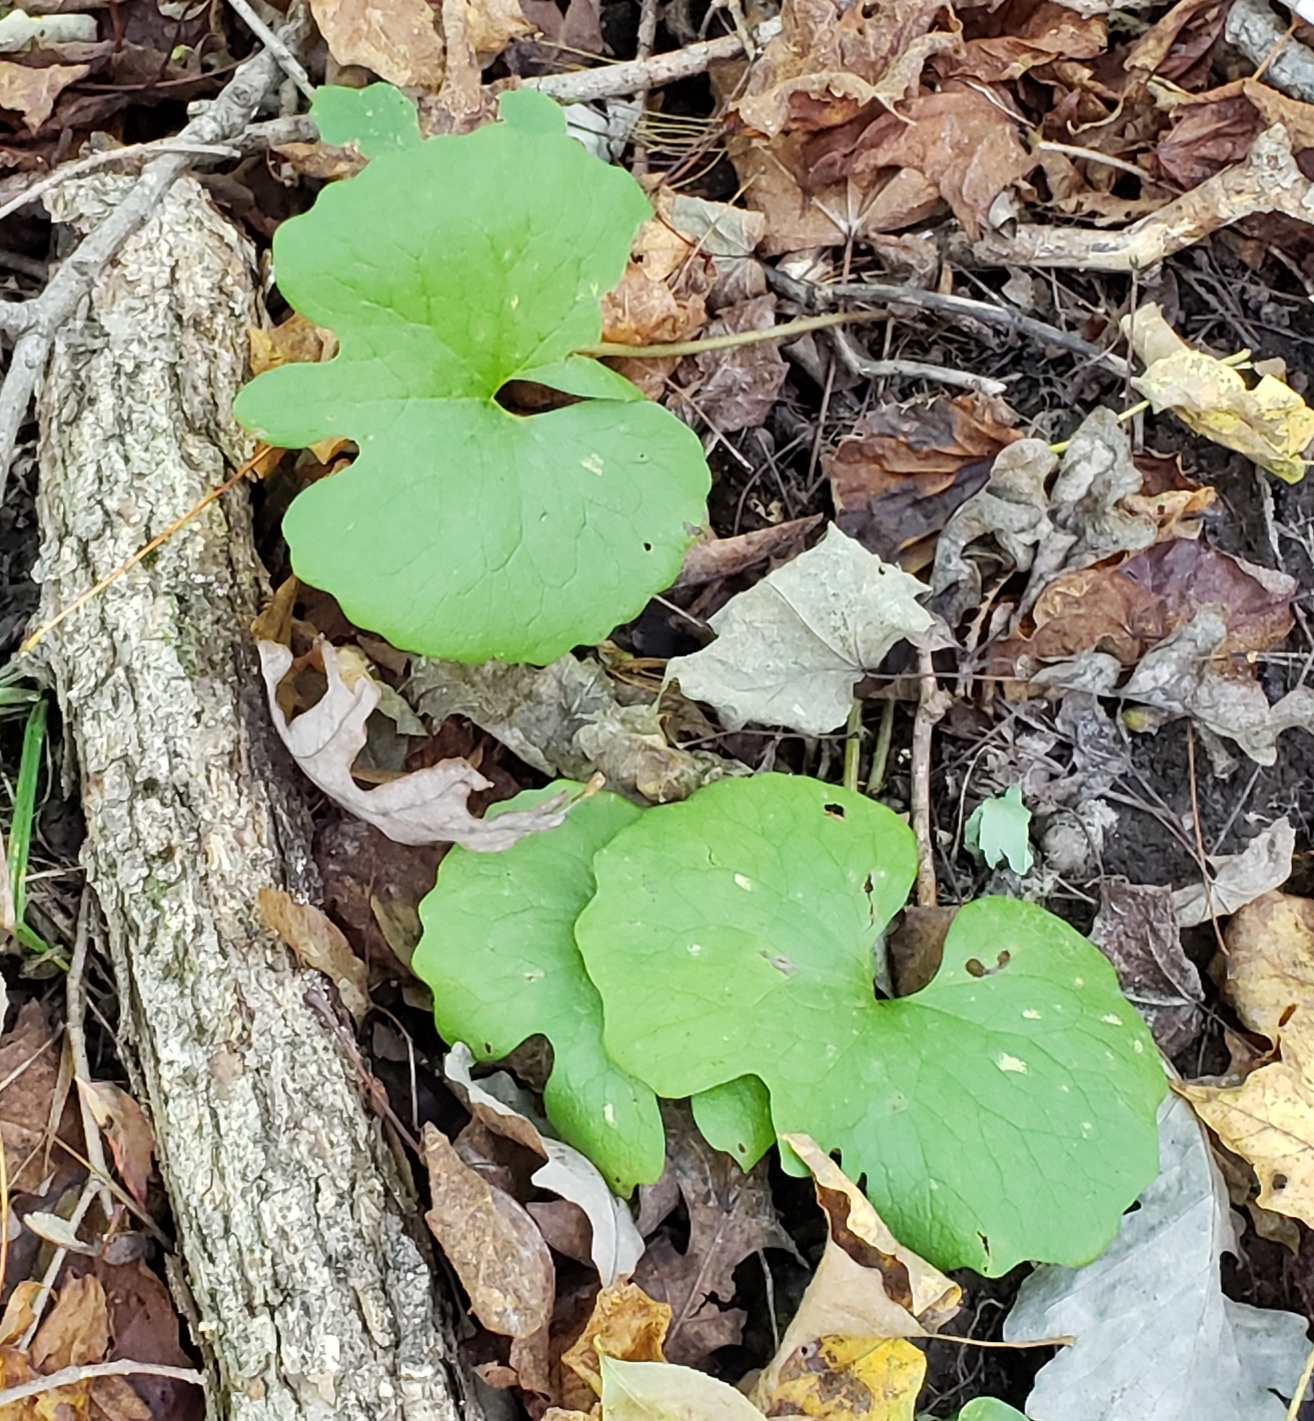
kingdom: Plantae
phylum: Tracheophyta
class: Magnoliopsida
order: Ranunculales
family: Papaveraceae
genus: Sanguinaria
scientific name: Sanguinaria canadensis
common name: Bloodroot
